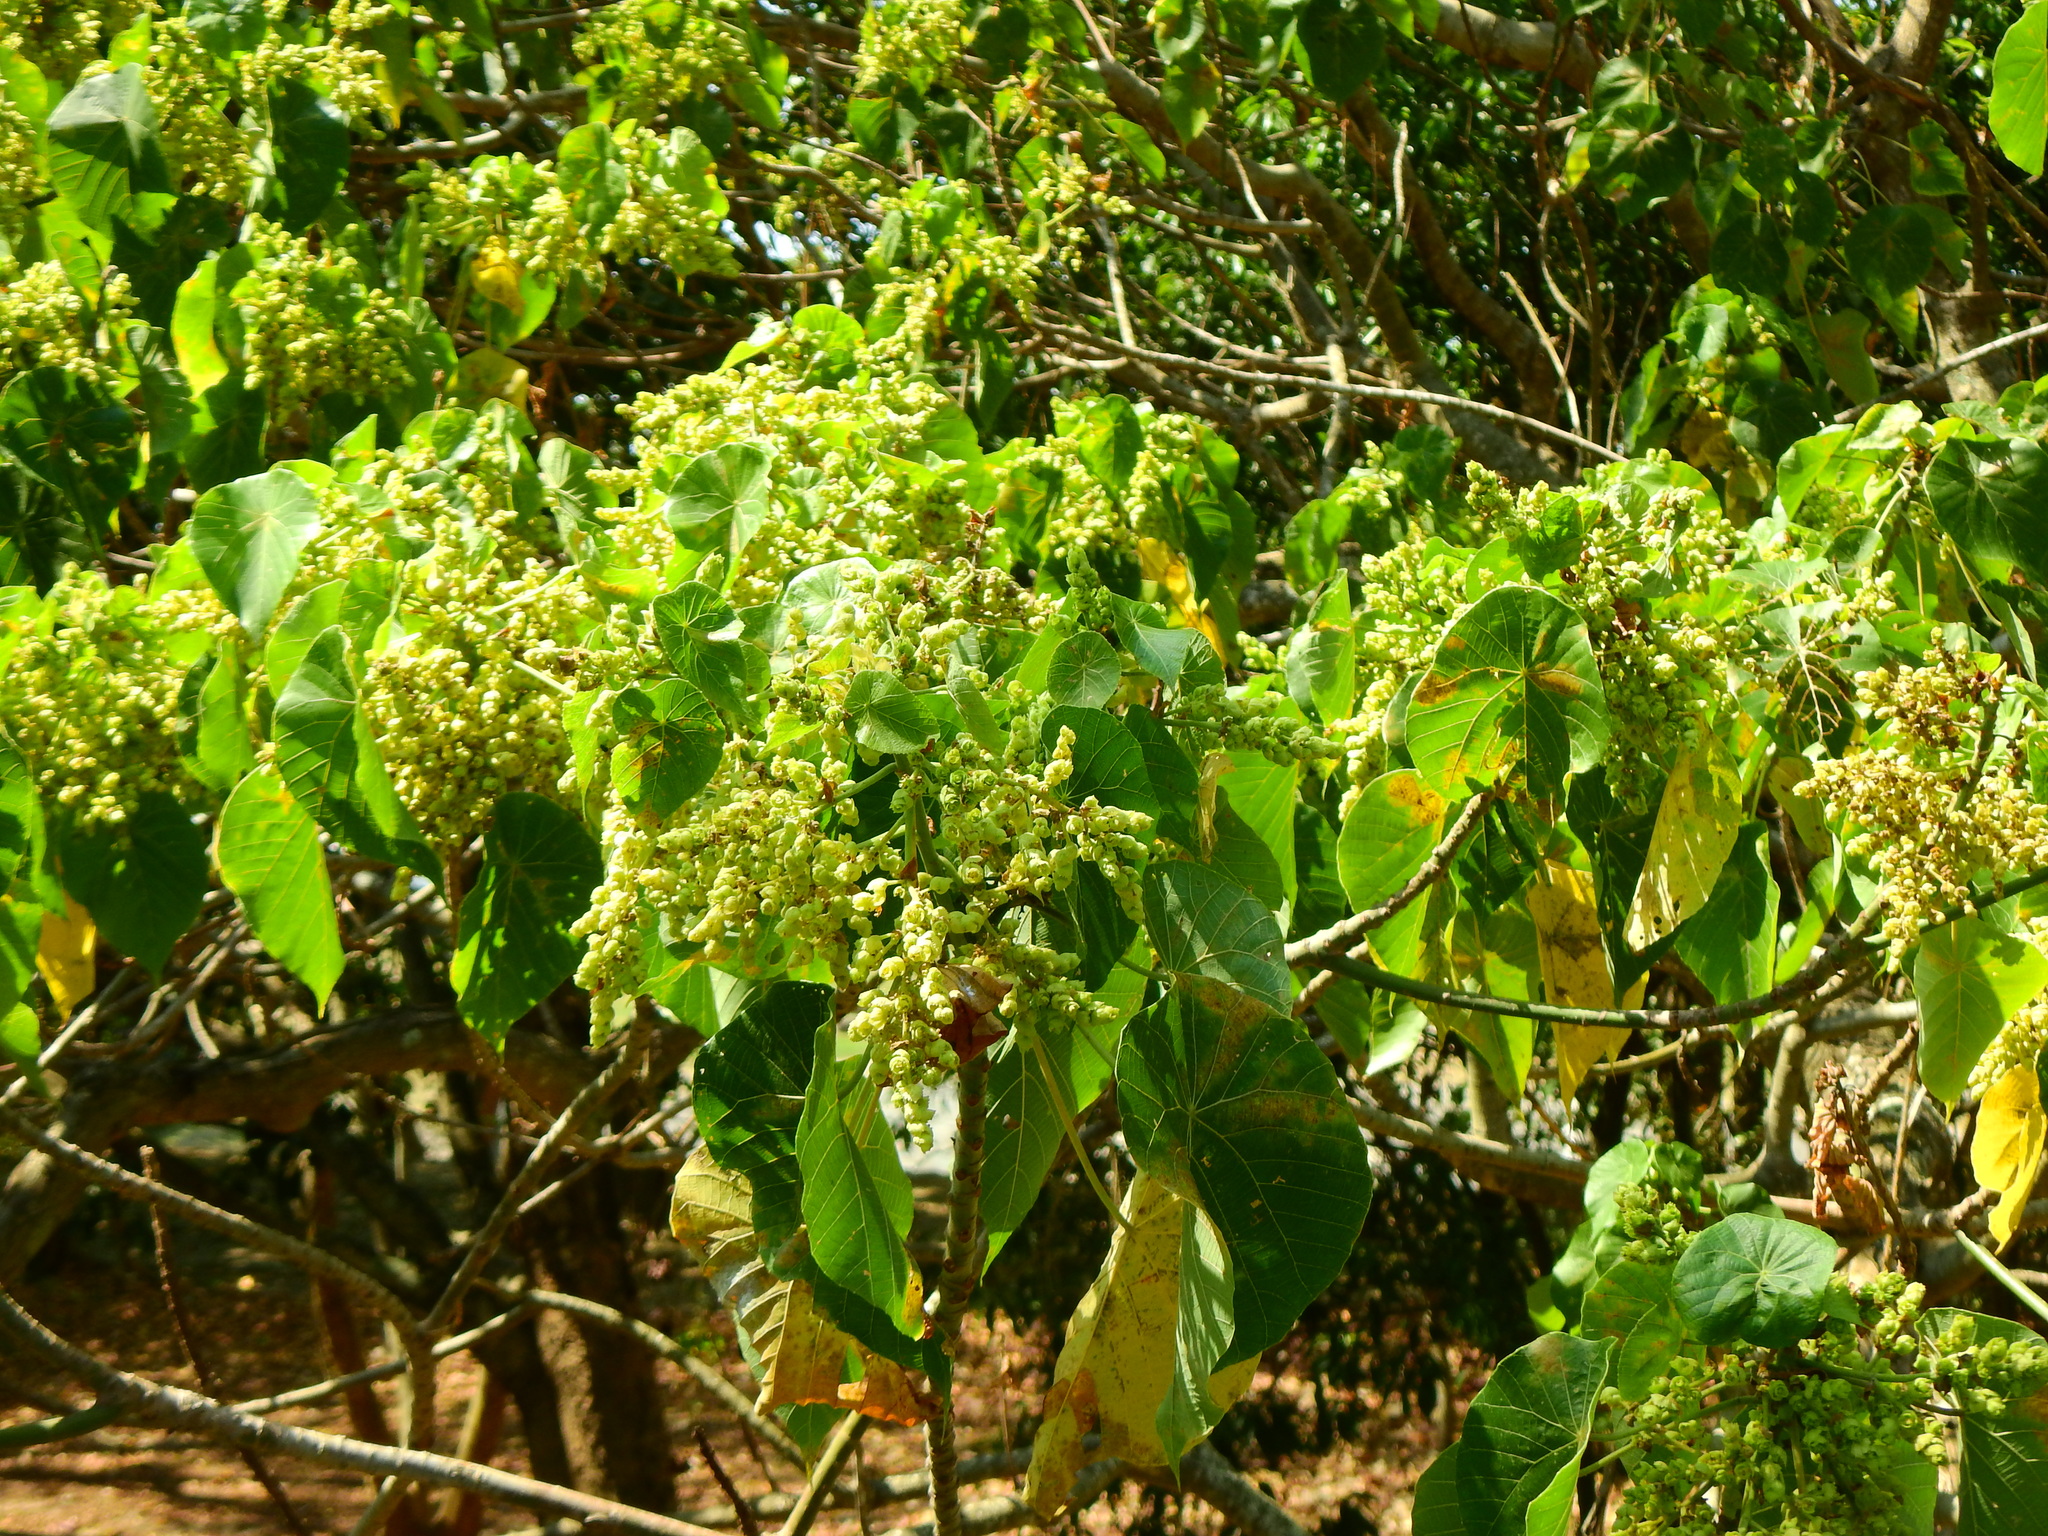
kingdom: Plantae
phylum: Tracheophyta
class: Magnoliopsida
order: Malpighiales
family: Euphorbiaceae
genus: Macaranga
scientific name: Macaranga tanarius
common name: Parasol leaf tree
